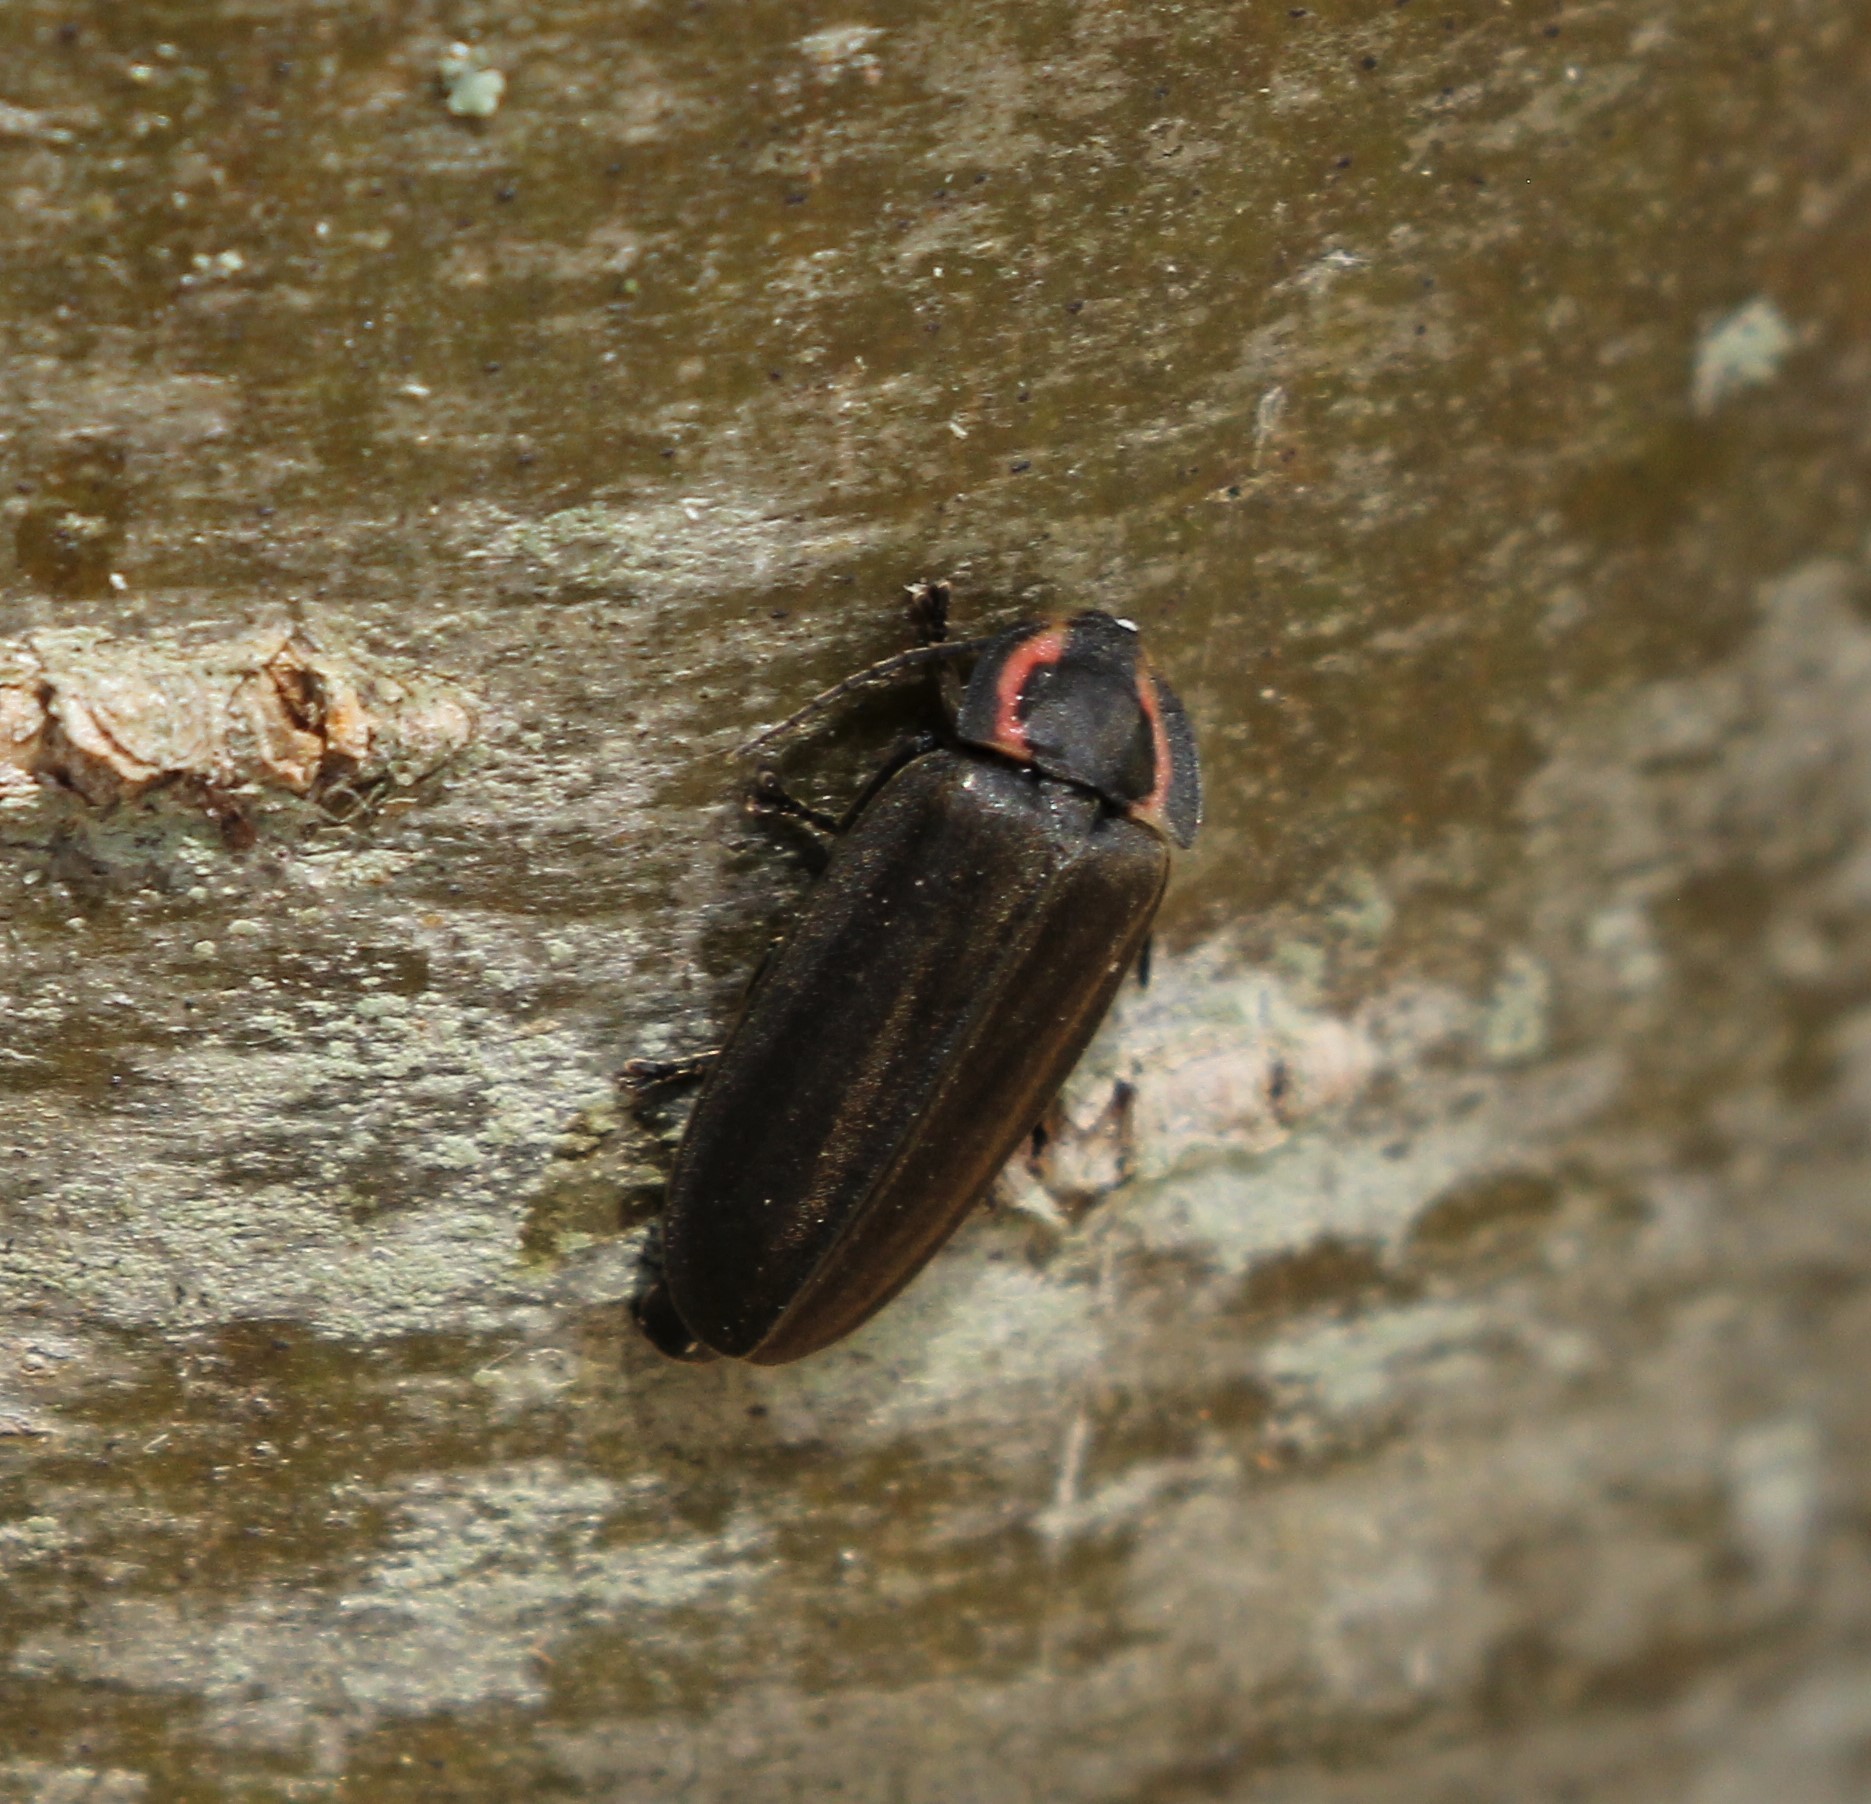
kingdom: Animalia
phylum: Arthropoda
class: Insecta
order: Coleoptera
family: Lampyridae
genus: Photinus
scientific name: Photinus corrusca
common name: Winter firefly
